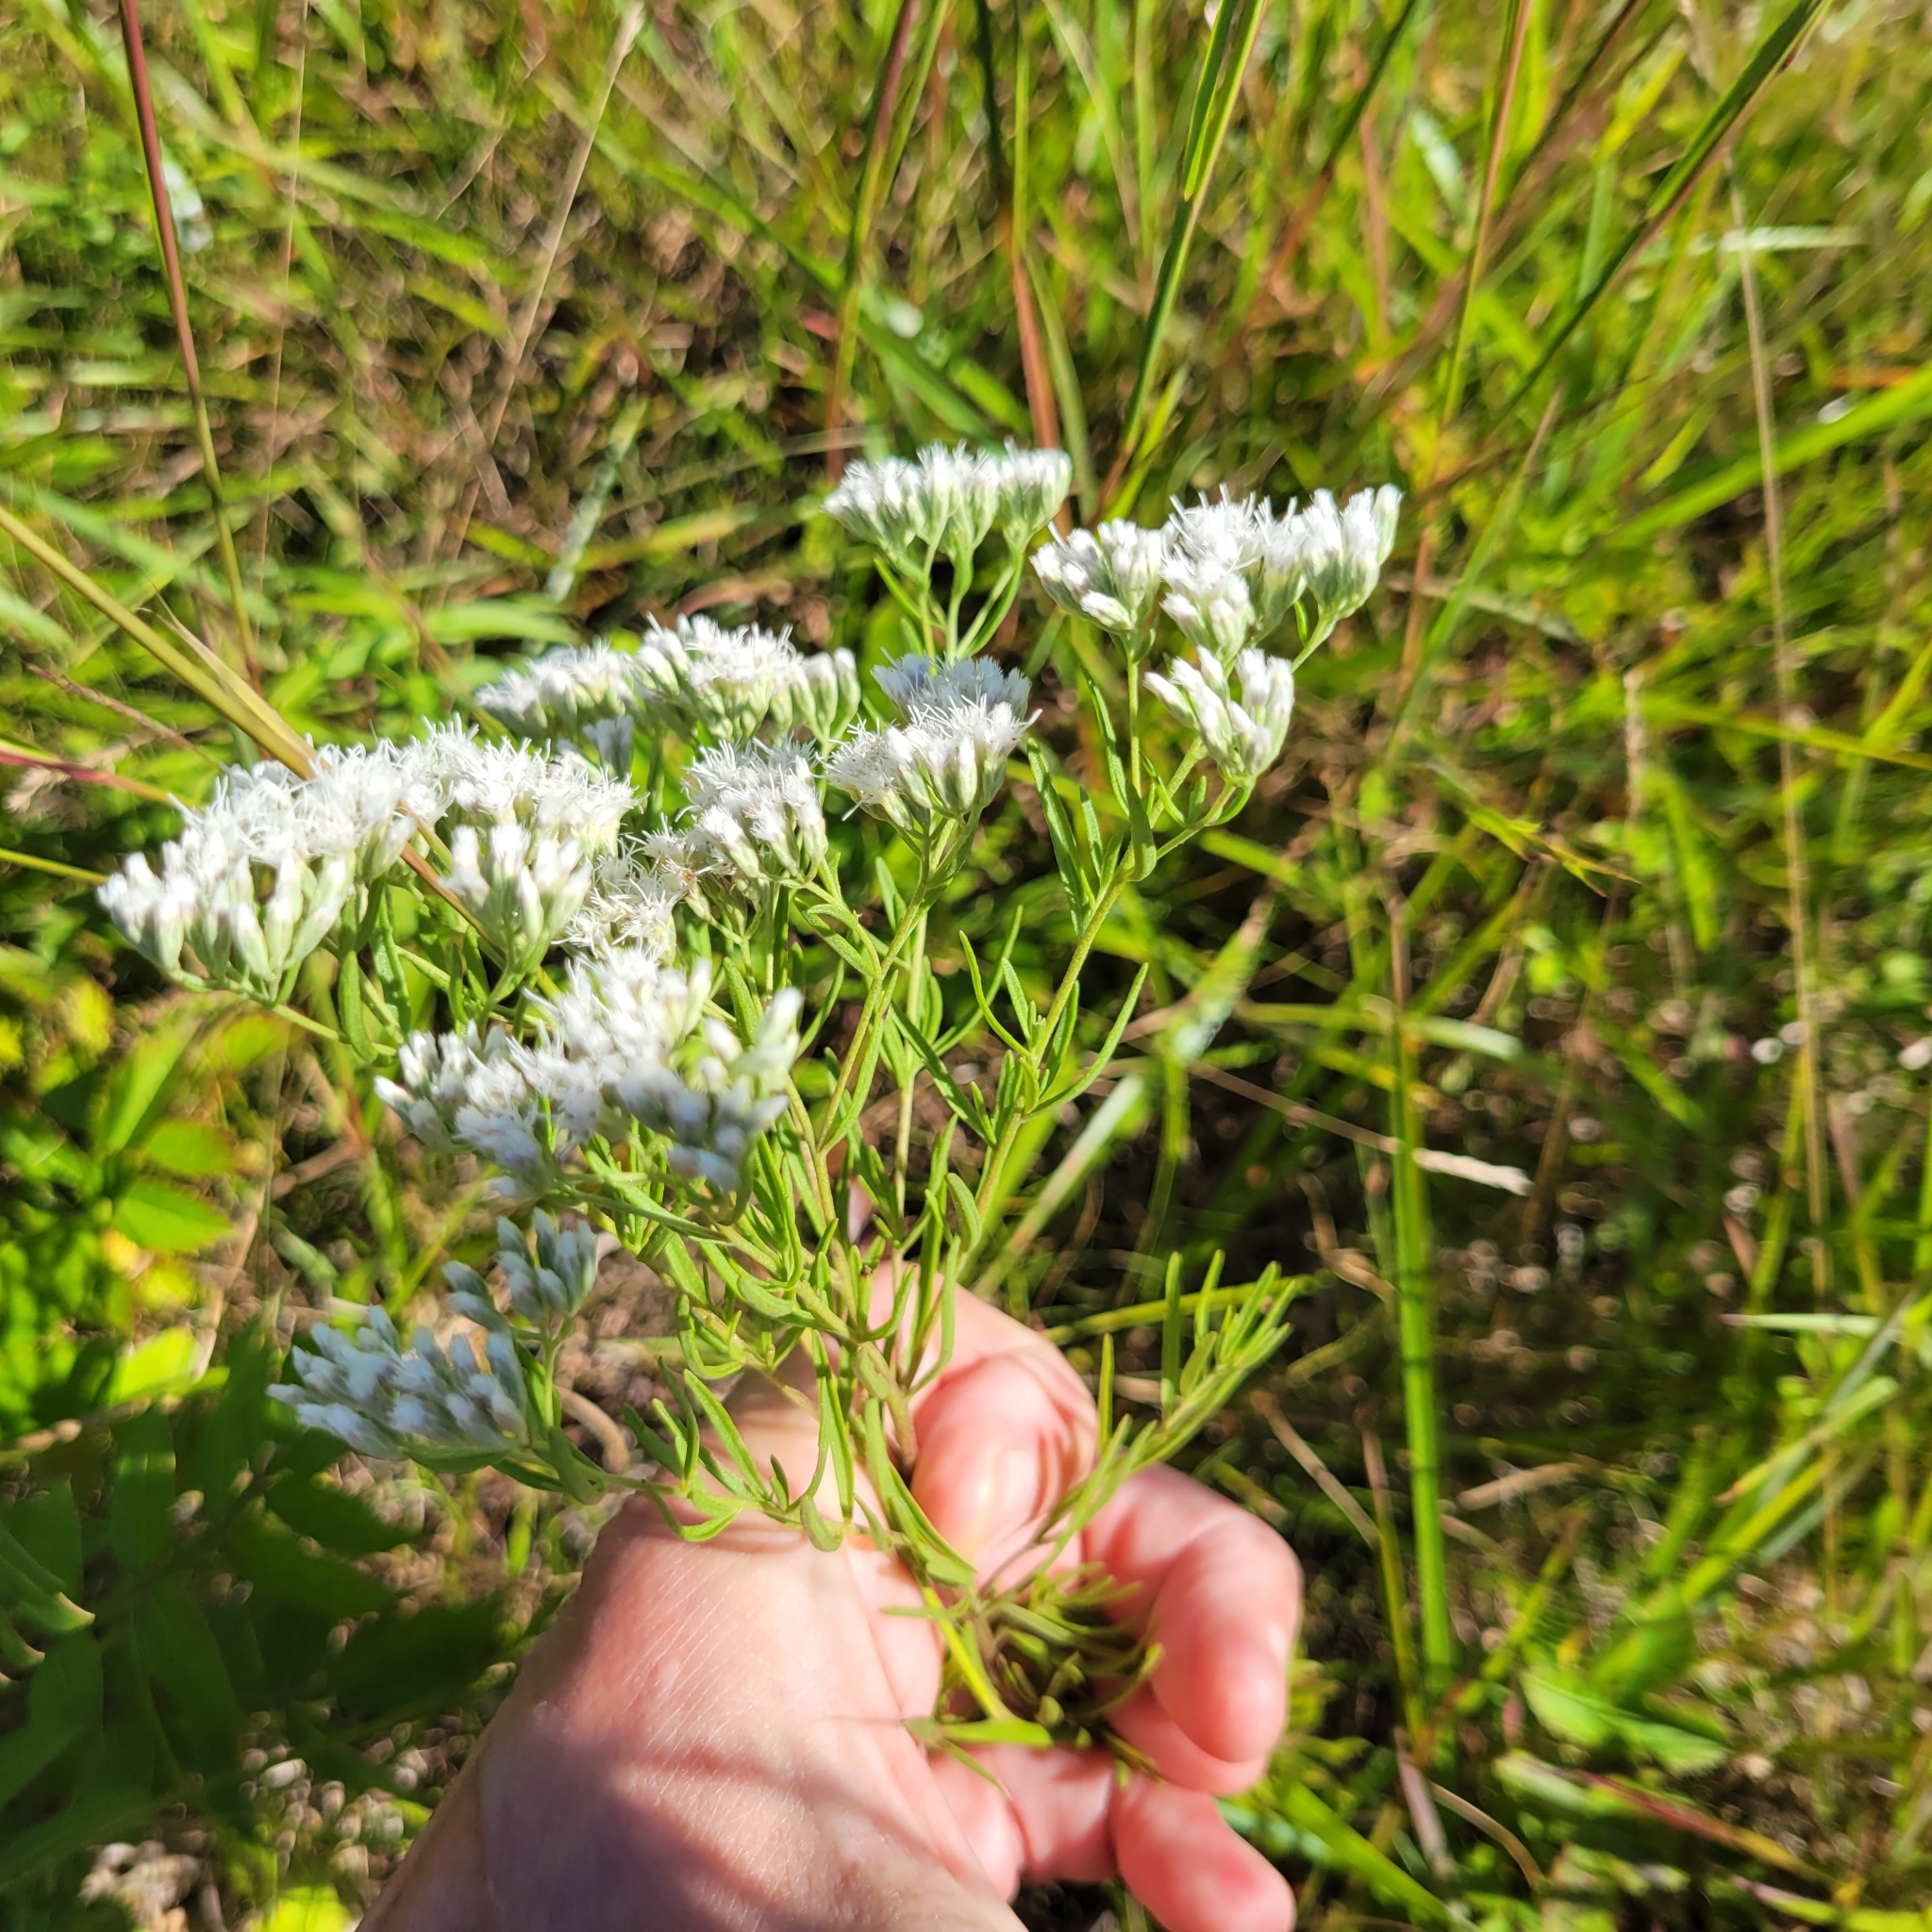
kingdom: Plantae
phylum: Tracheophyta
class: Magnoliopsida
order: Asterales
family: Asteraceae
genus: Eupatorium
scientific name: Eupatorium hyssopifolium
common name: Hyssop-leaf thoroughwort
